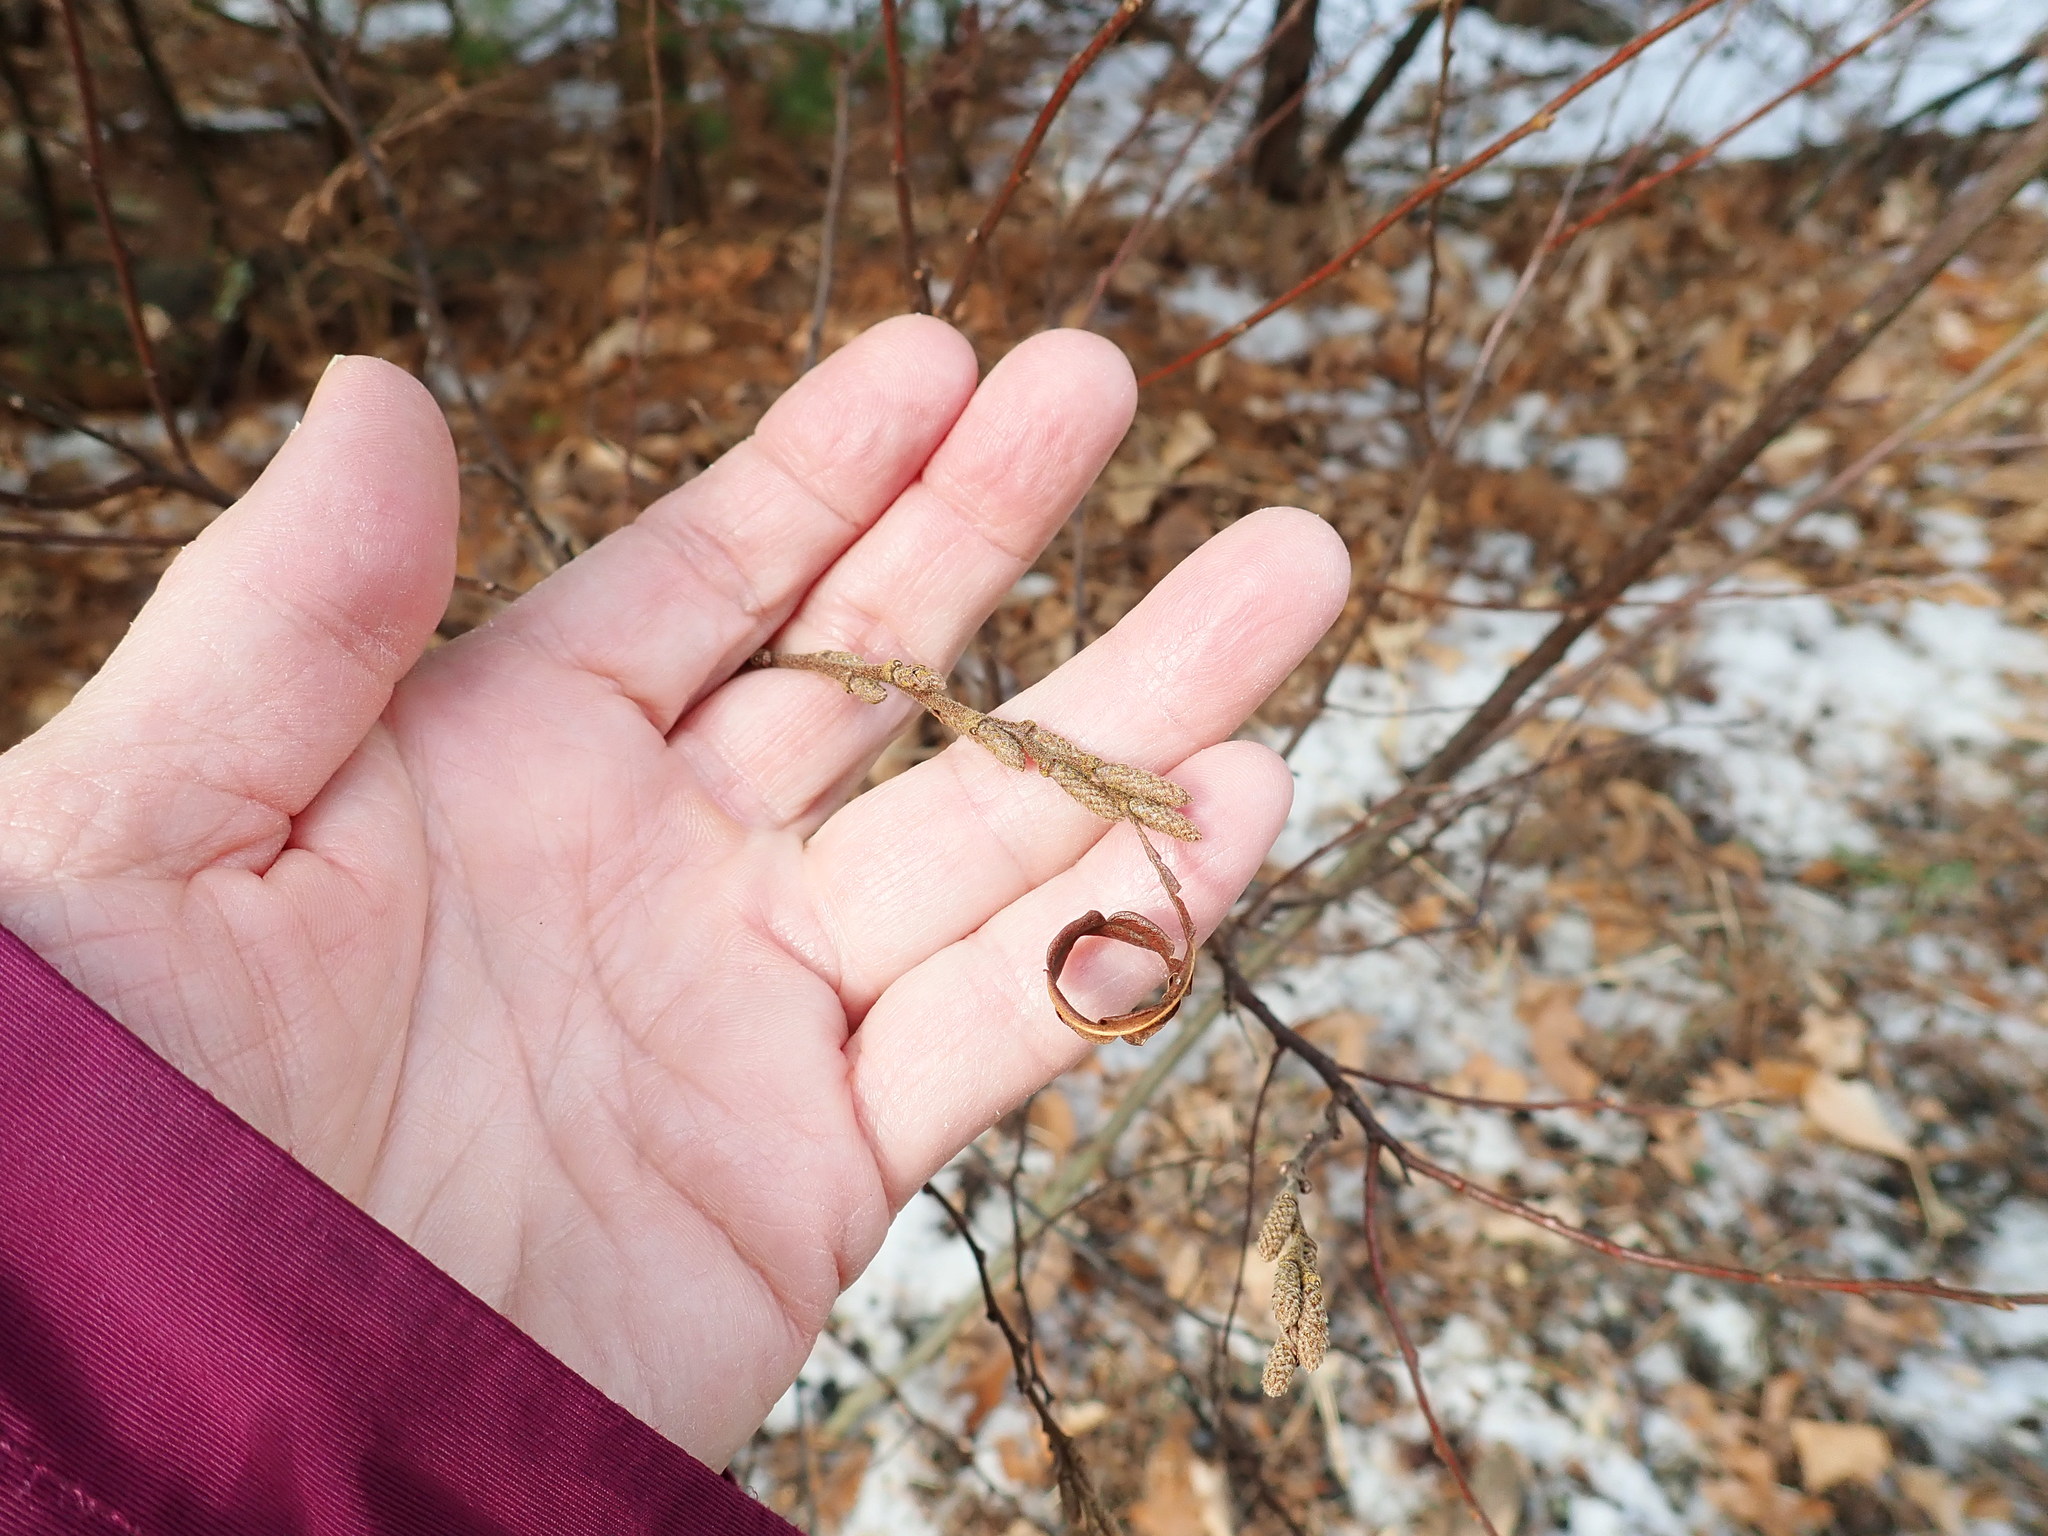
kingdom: Plantae
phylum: Tracheophyta
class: Magnoliopsida
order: Fagales
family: Myricaceae
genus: Comptonia
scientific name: Comptonia peregrina
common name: Sweet-fern
